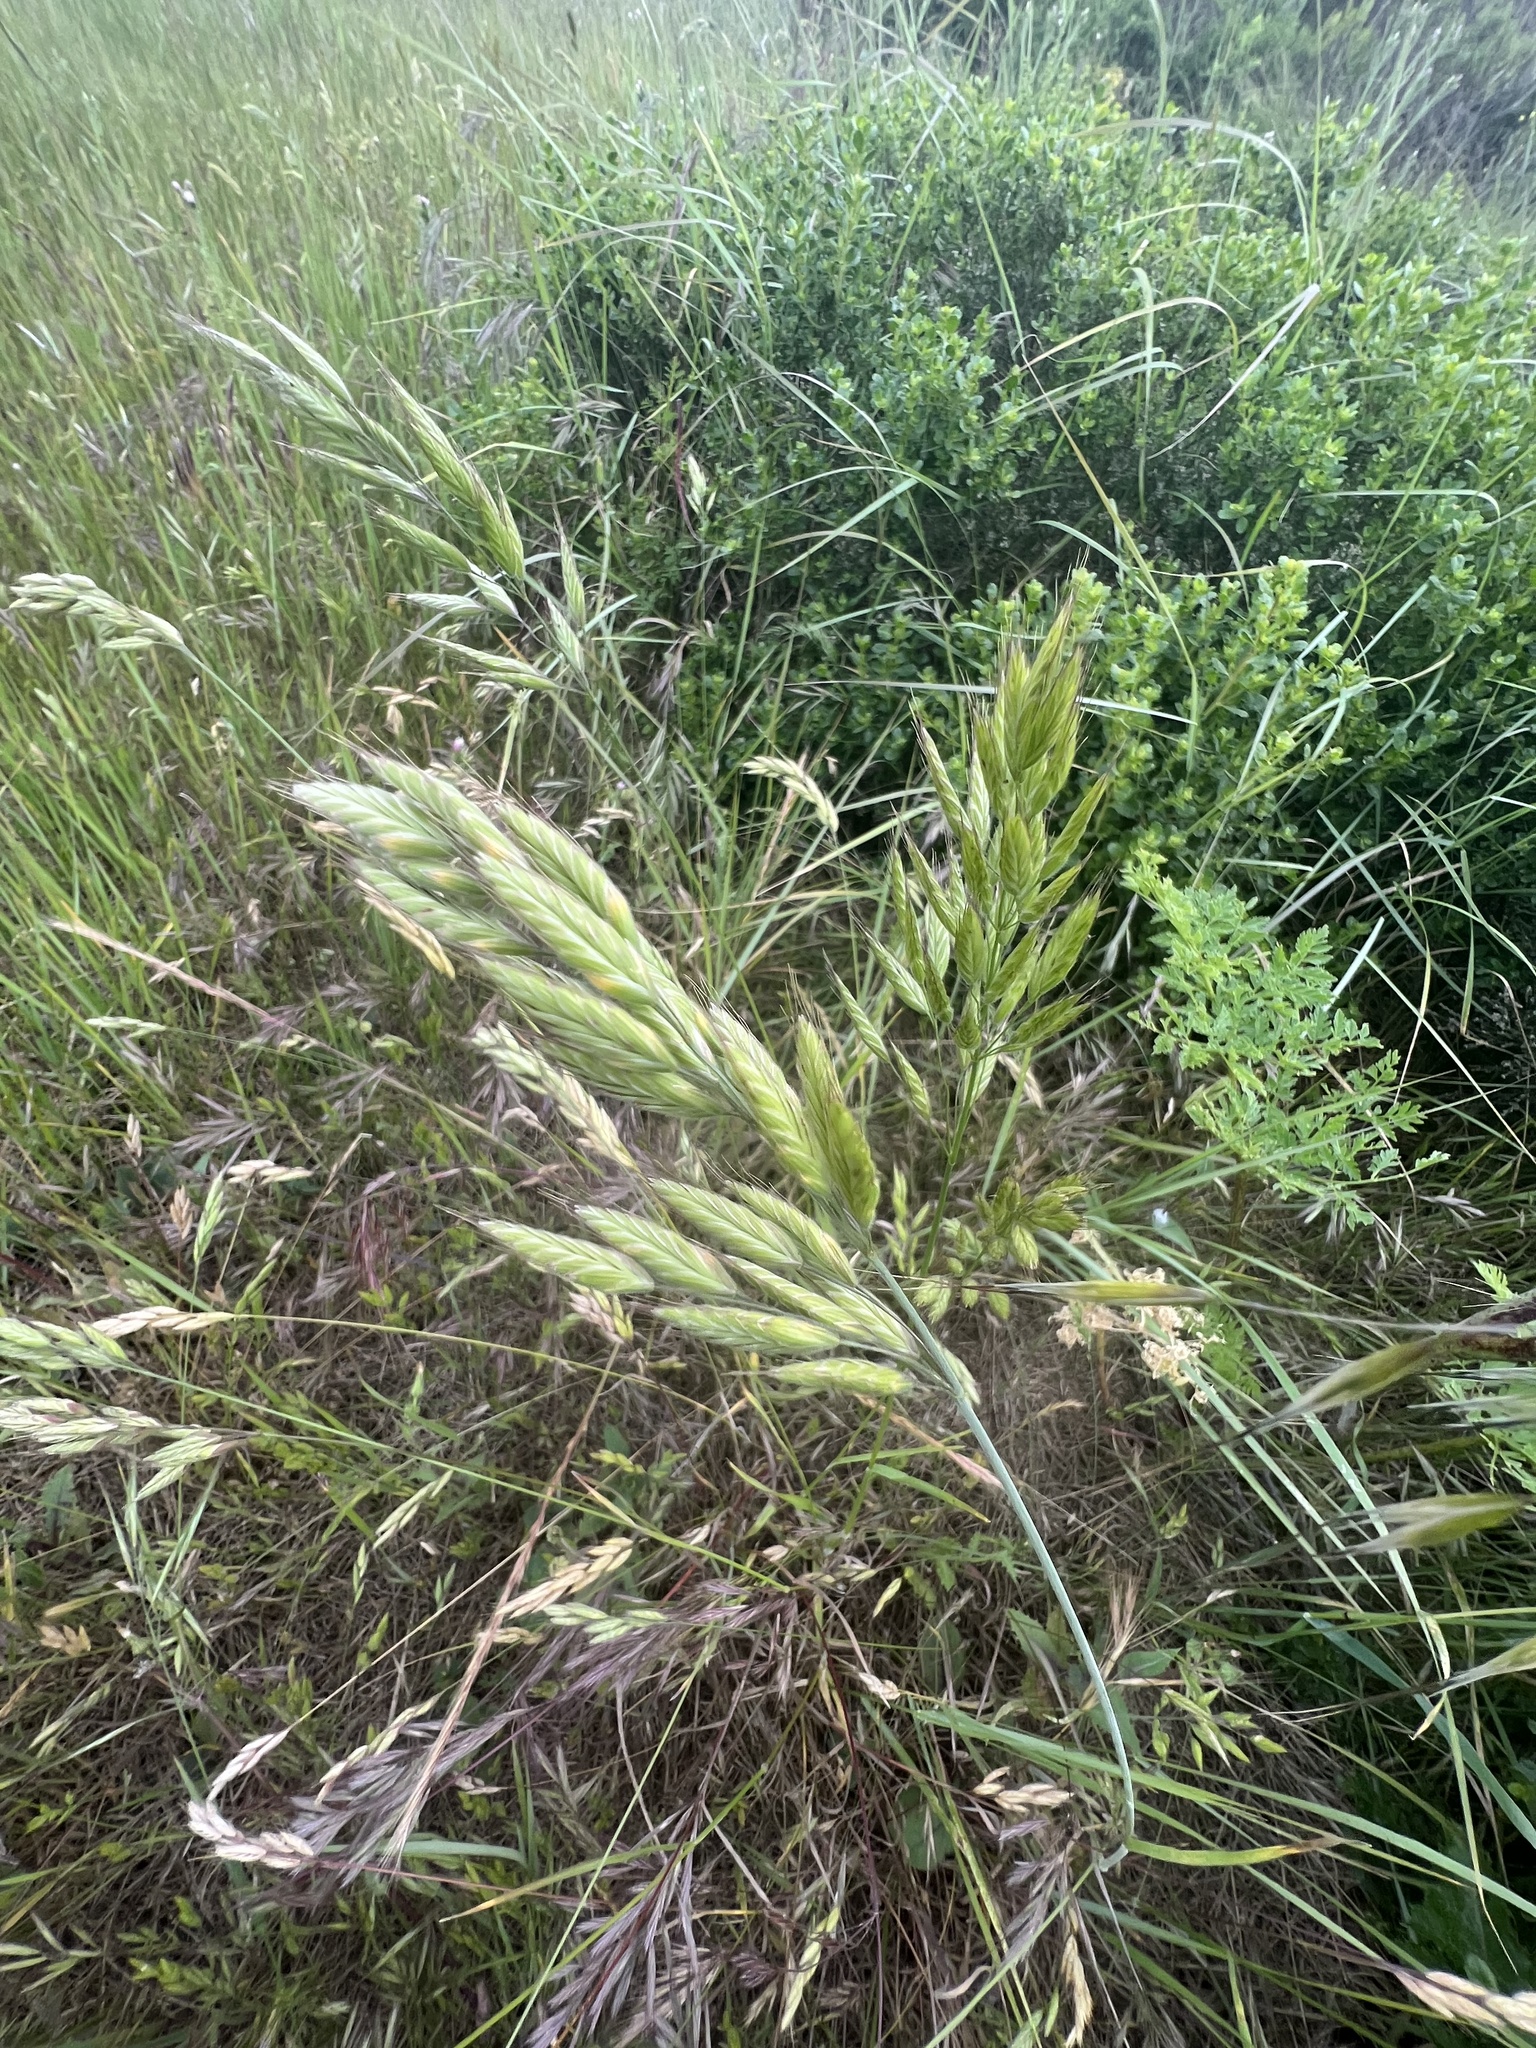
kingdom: Plantae
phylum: Tracheophyta
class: Liliopsida
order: Poales
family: Poaceae
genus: Bromus
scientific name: Bromus hordeaceus
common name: Soft brome
